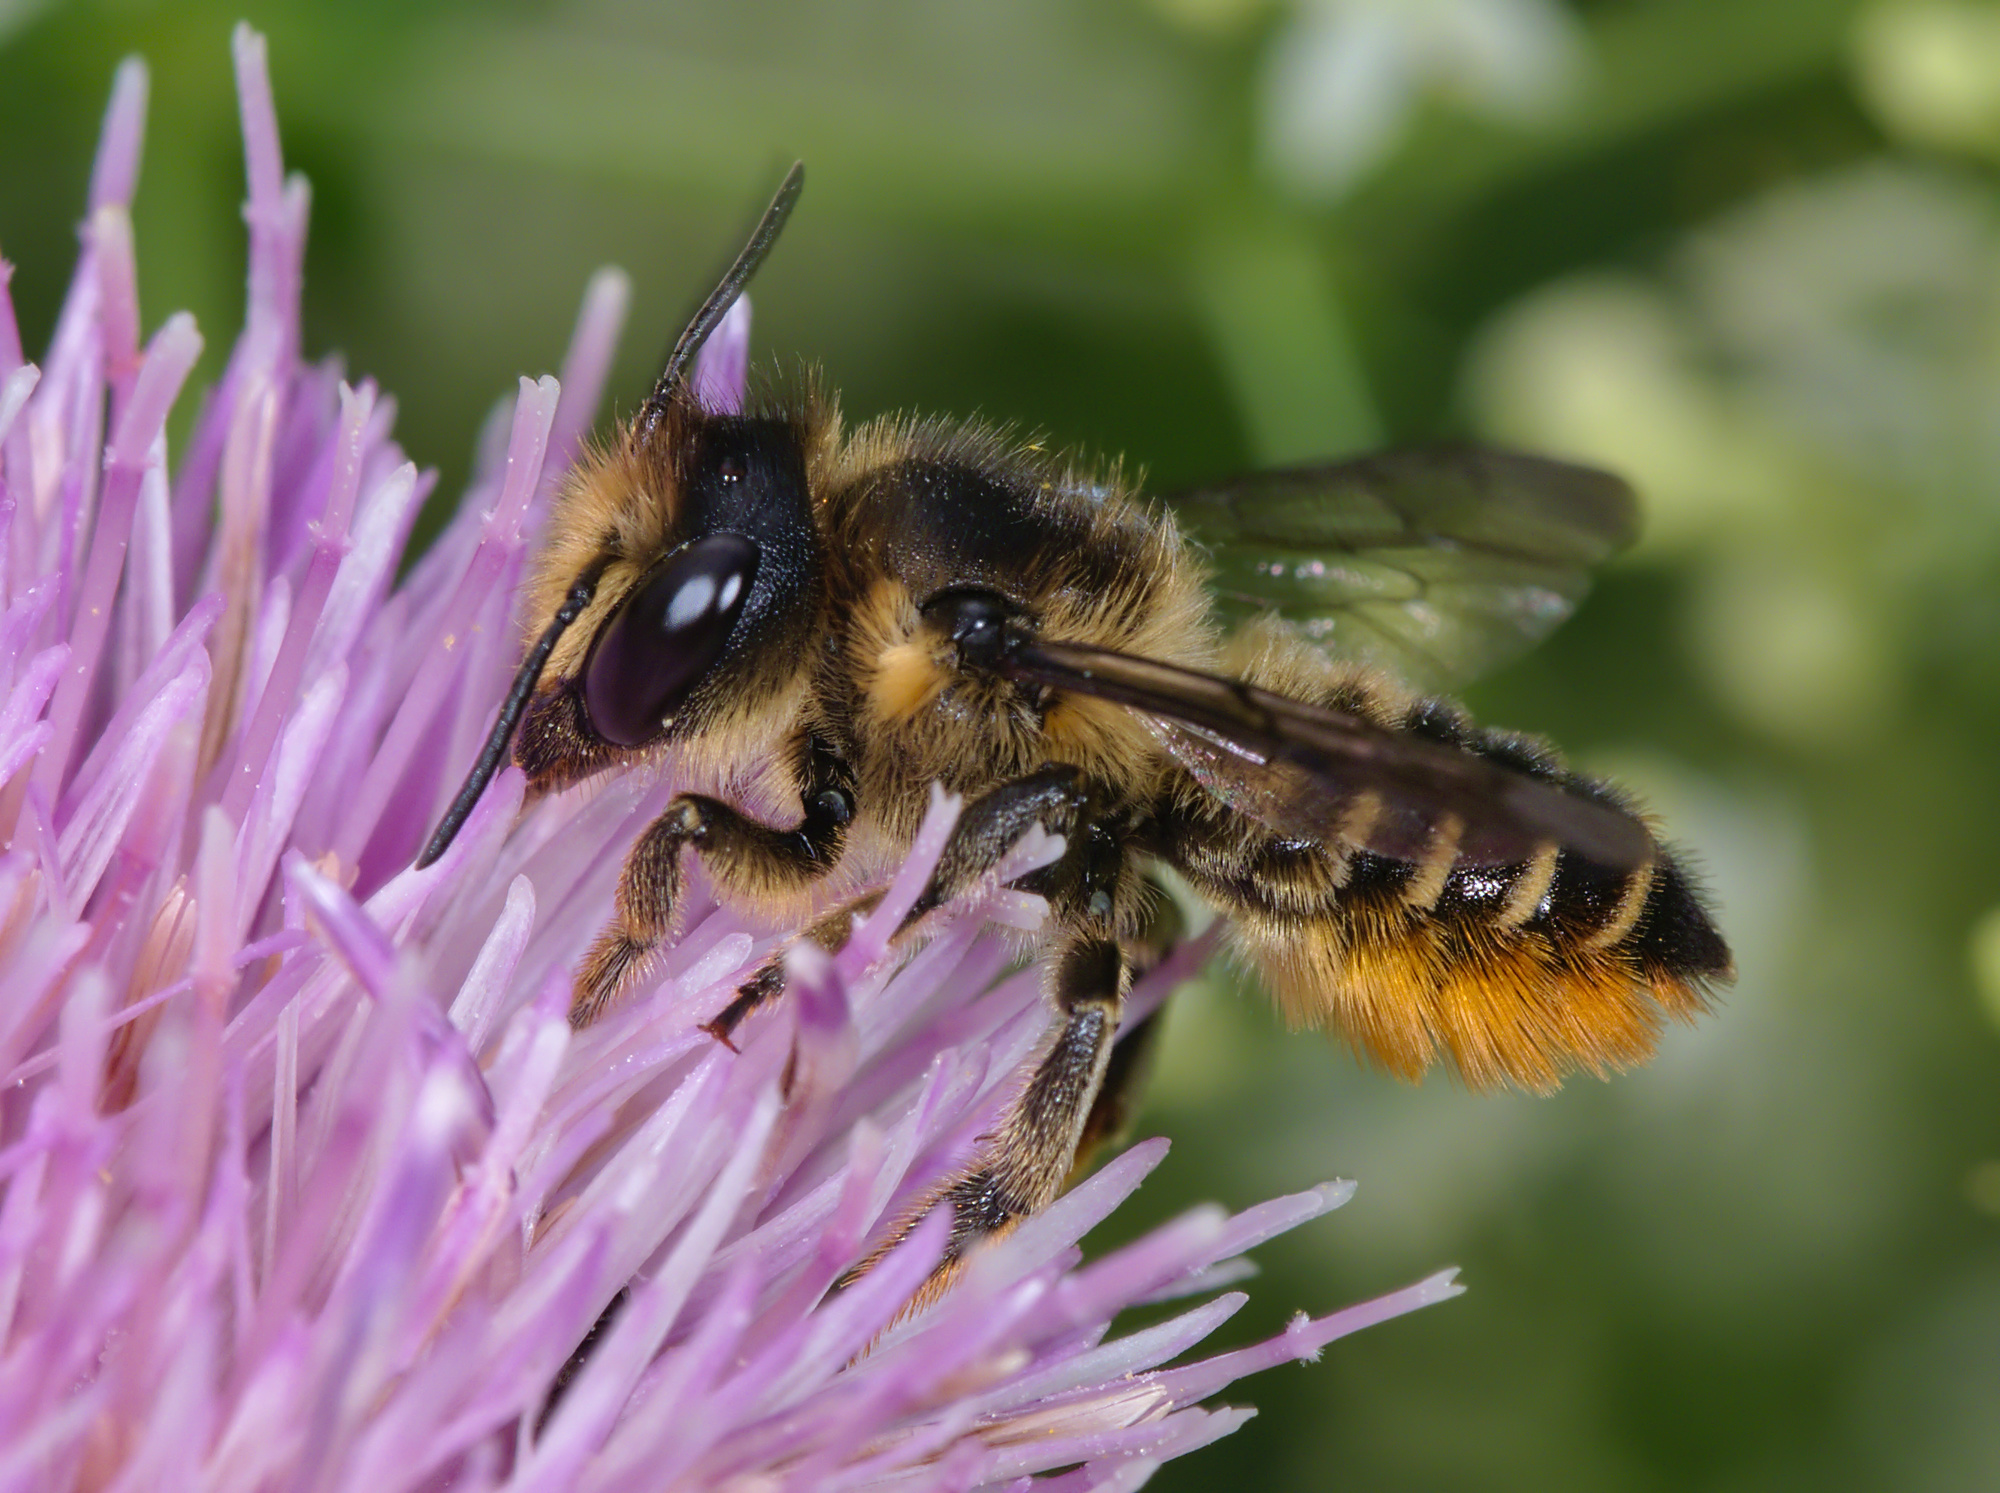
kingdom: Animalia
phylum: Arthropoda
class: Insecta
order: Hymenoptera
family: Megachilidae
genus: Megachile
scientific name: Megachile centuncularis
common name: Patchwork leafcutter bee
